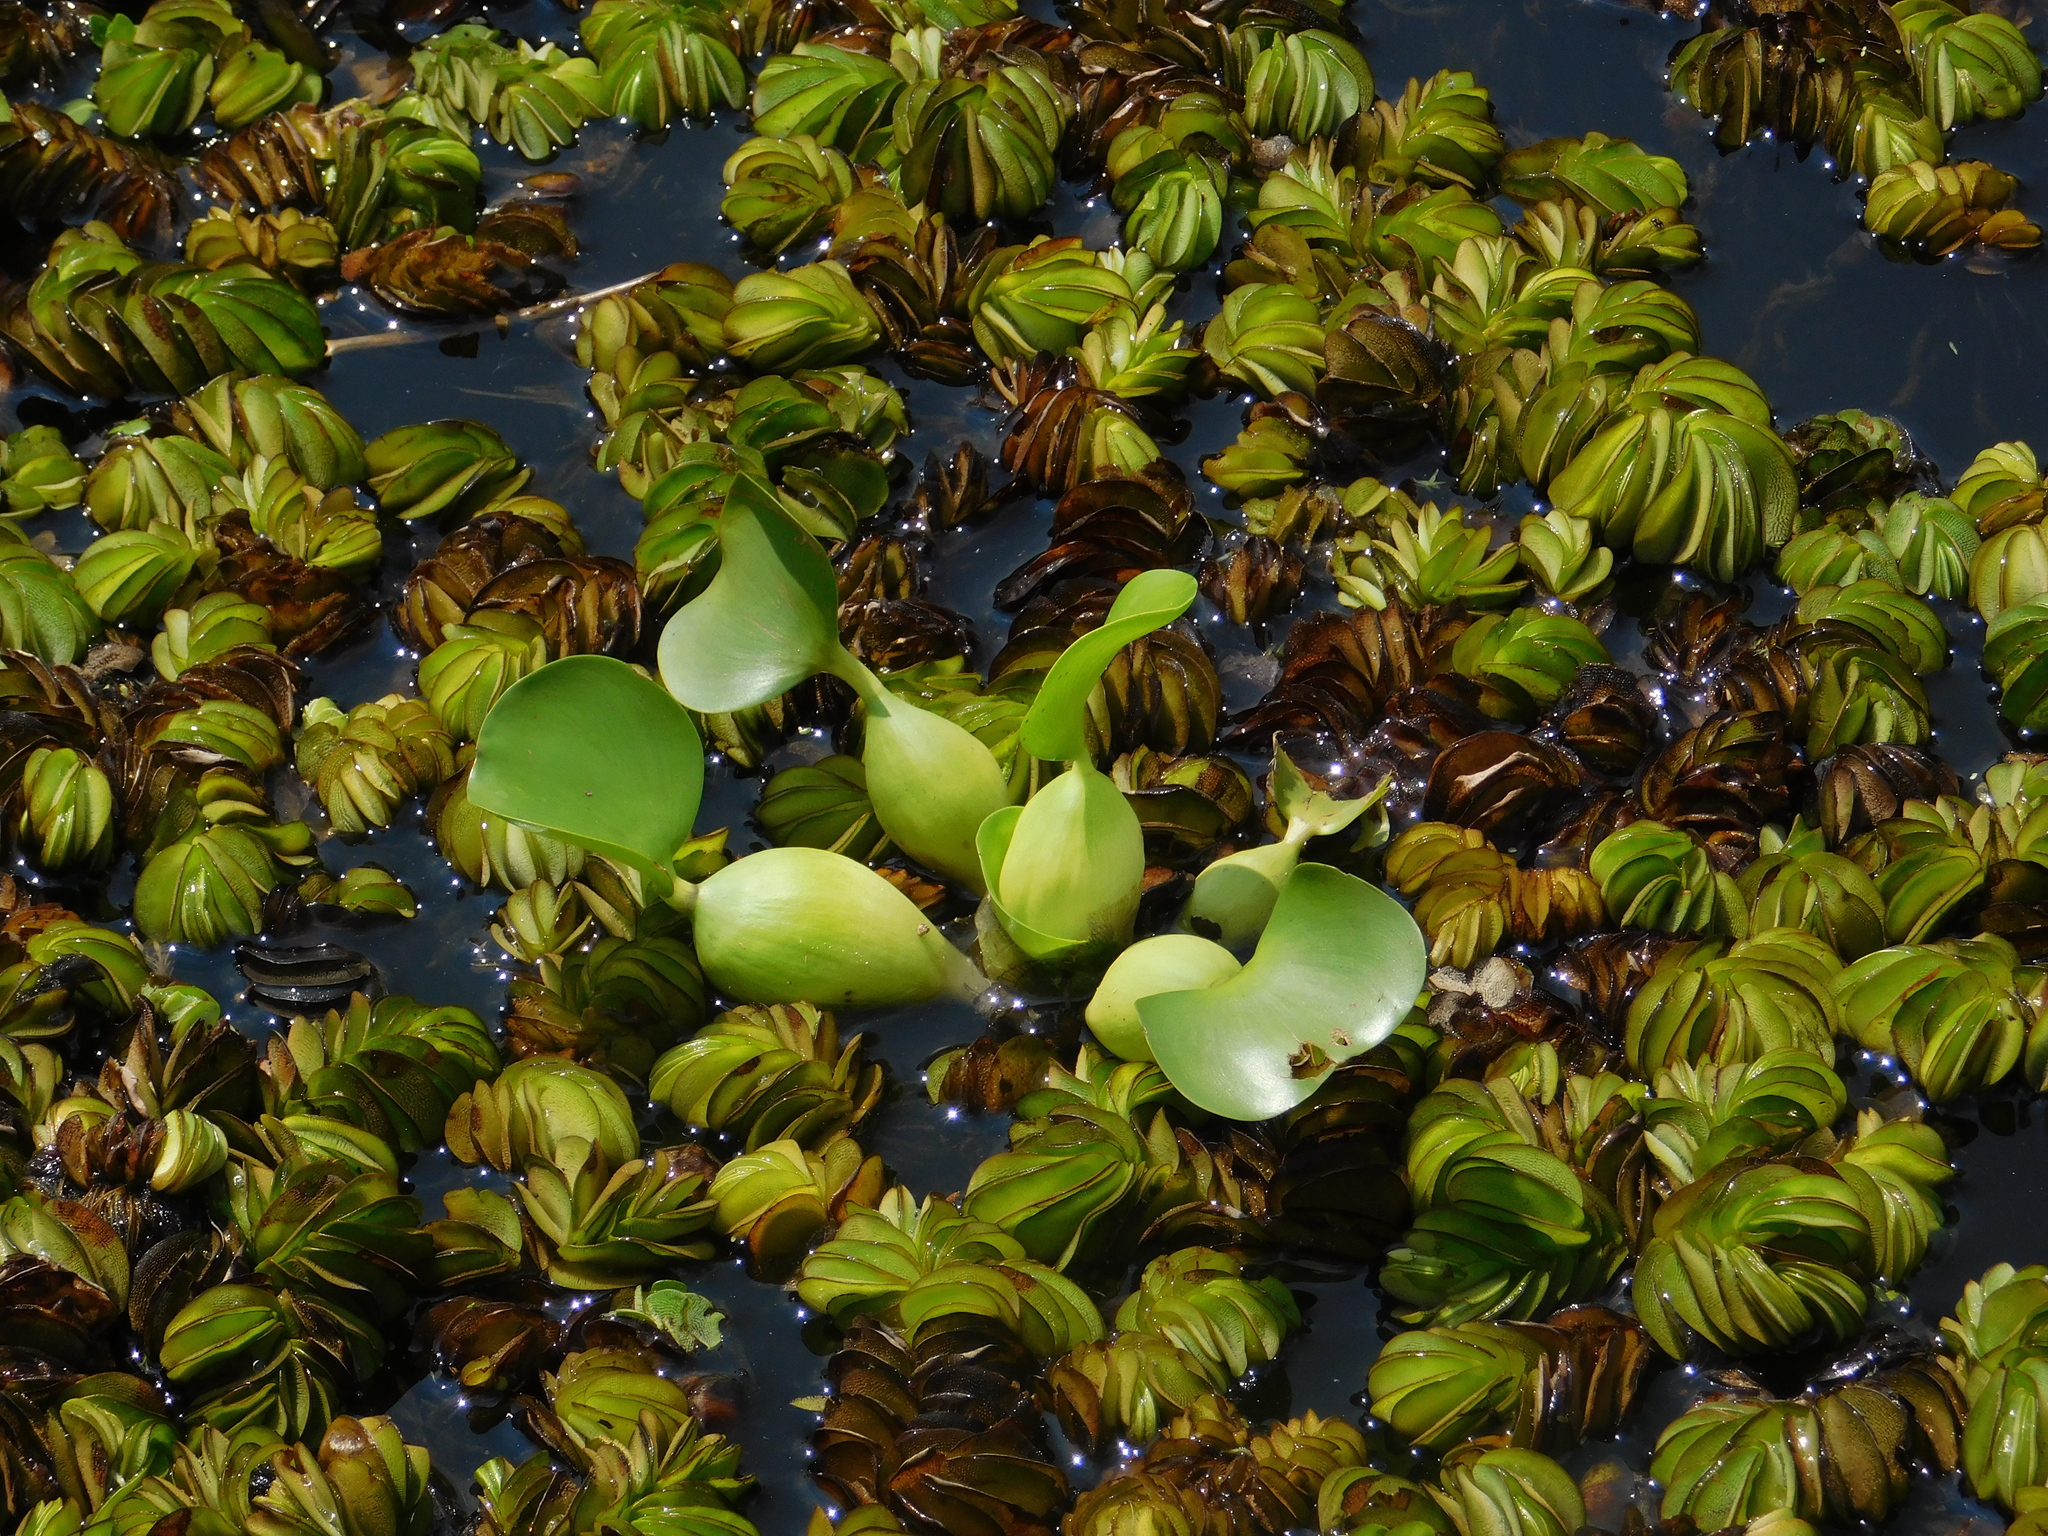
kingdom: Plantae
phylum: Tracheophyta
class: Liliopsida
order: Commelinales
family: Pontederiaceae
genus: Pontederia
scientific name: Pontederia crassipes
